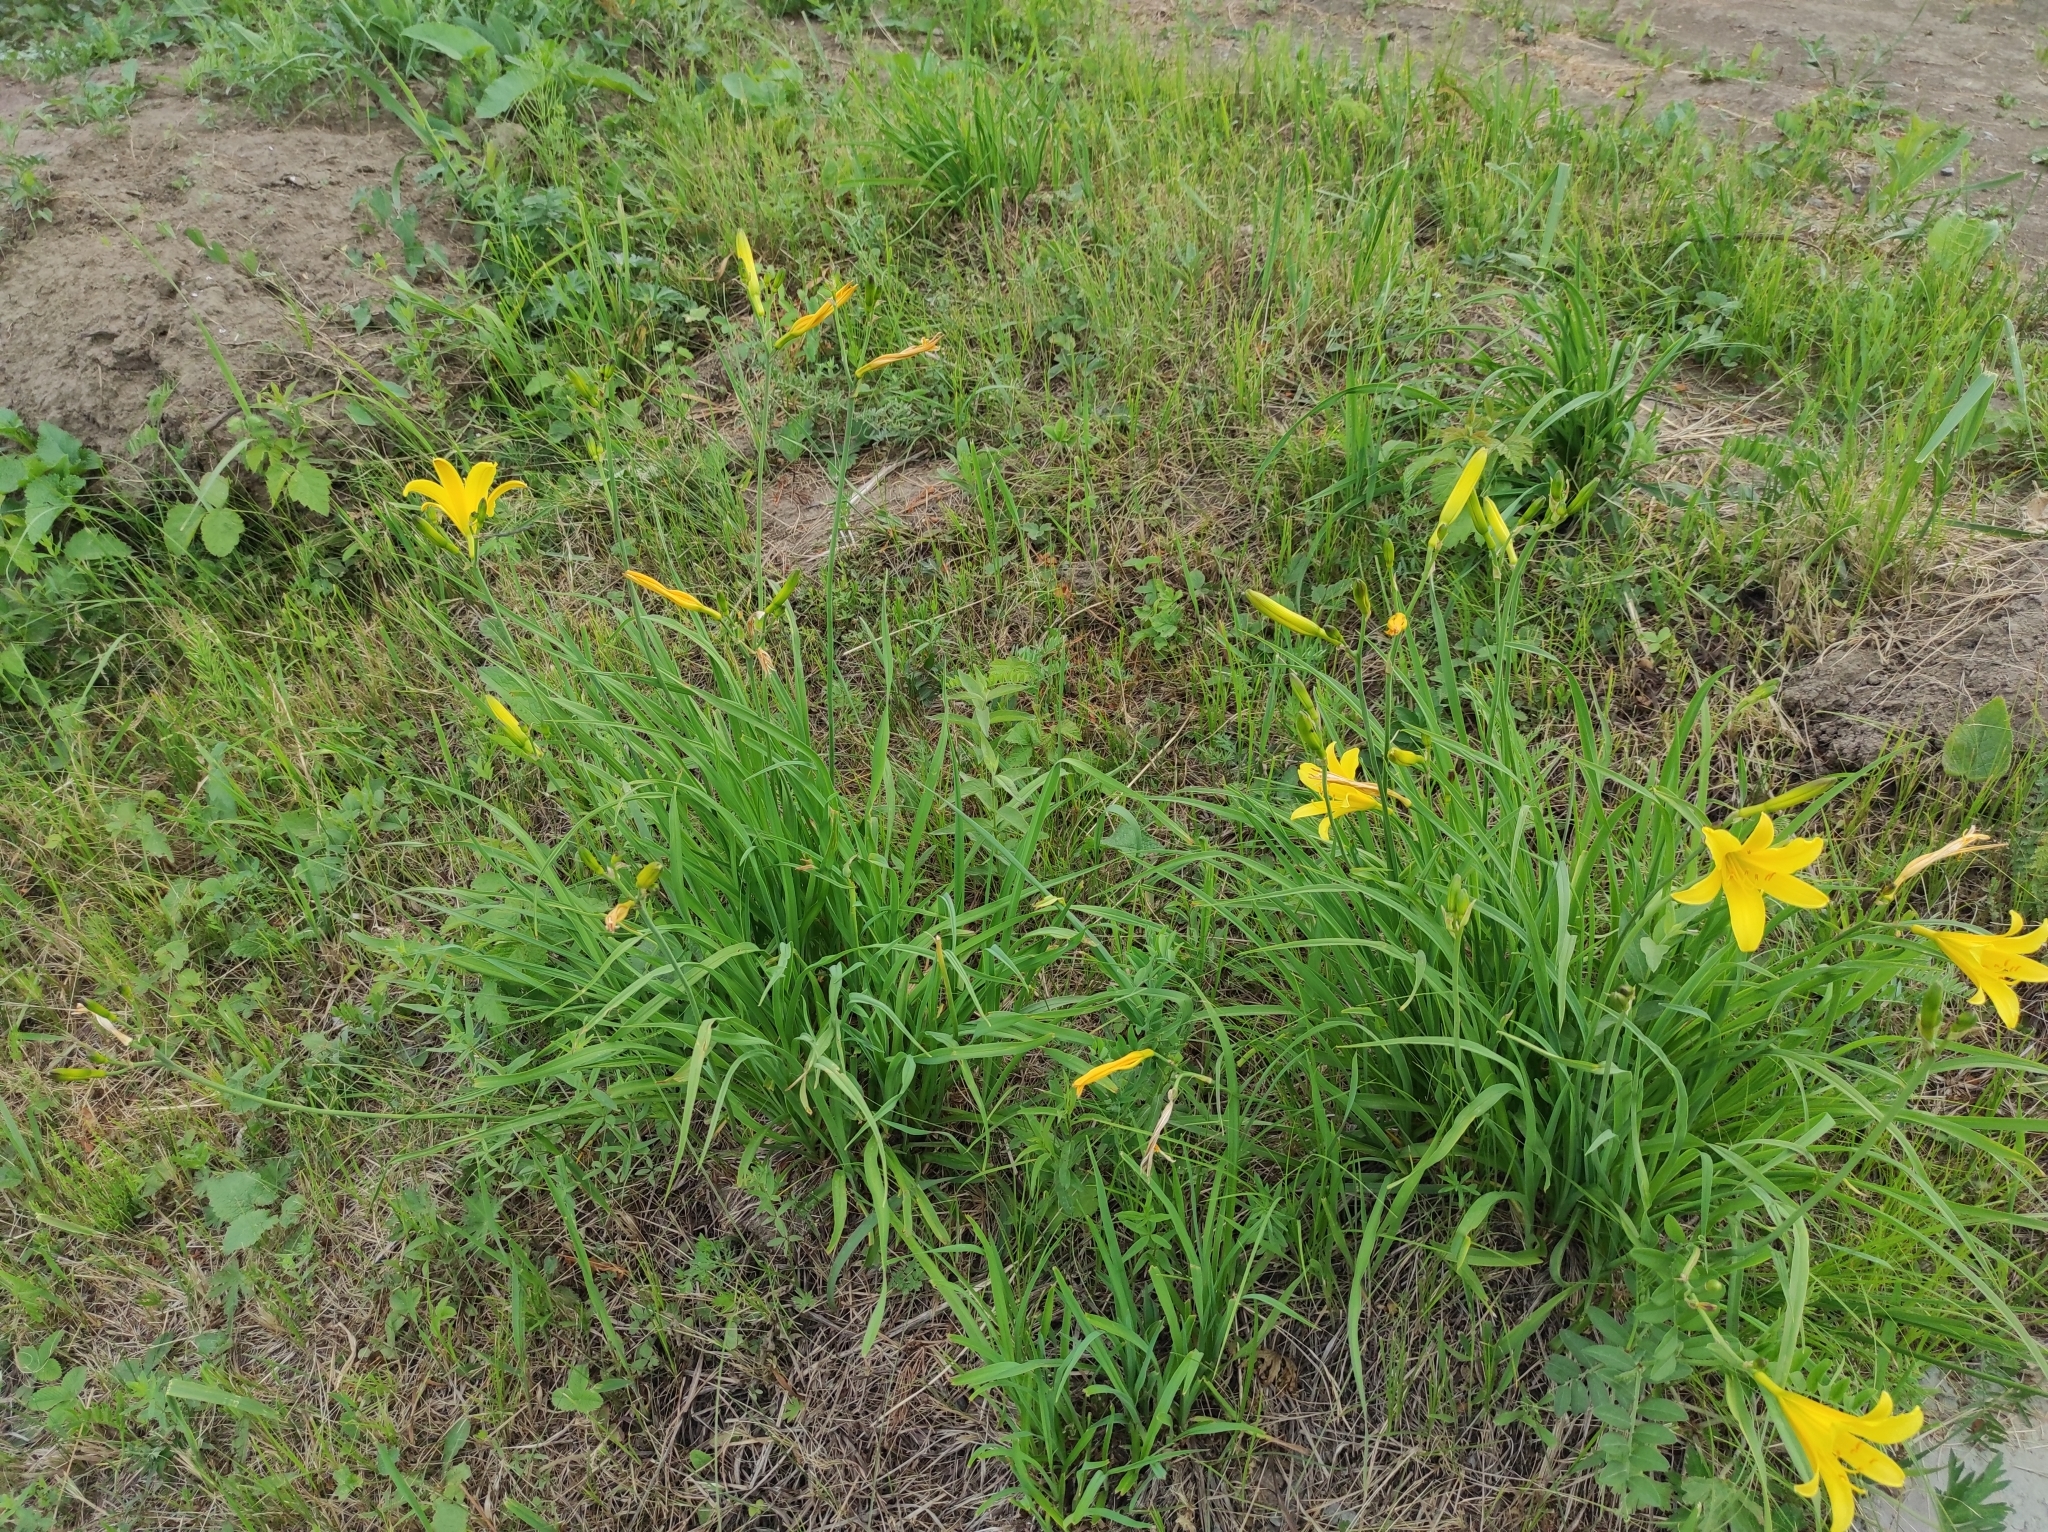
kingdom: Plantae
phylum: Tracheophyta
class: Liliopsida
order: Asparagales
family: Asphodelaceae
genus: Hemerocallis
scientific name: Hemerocallis minor
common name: Small daylily
